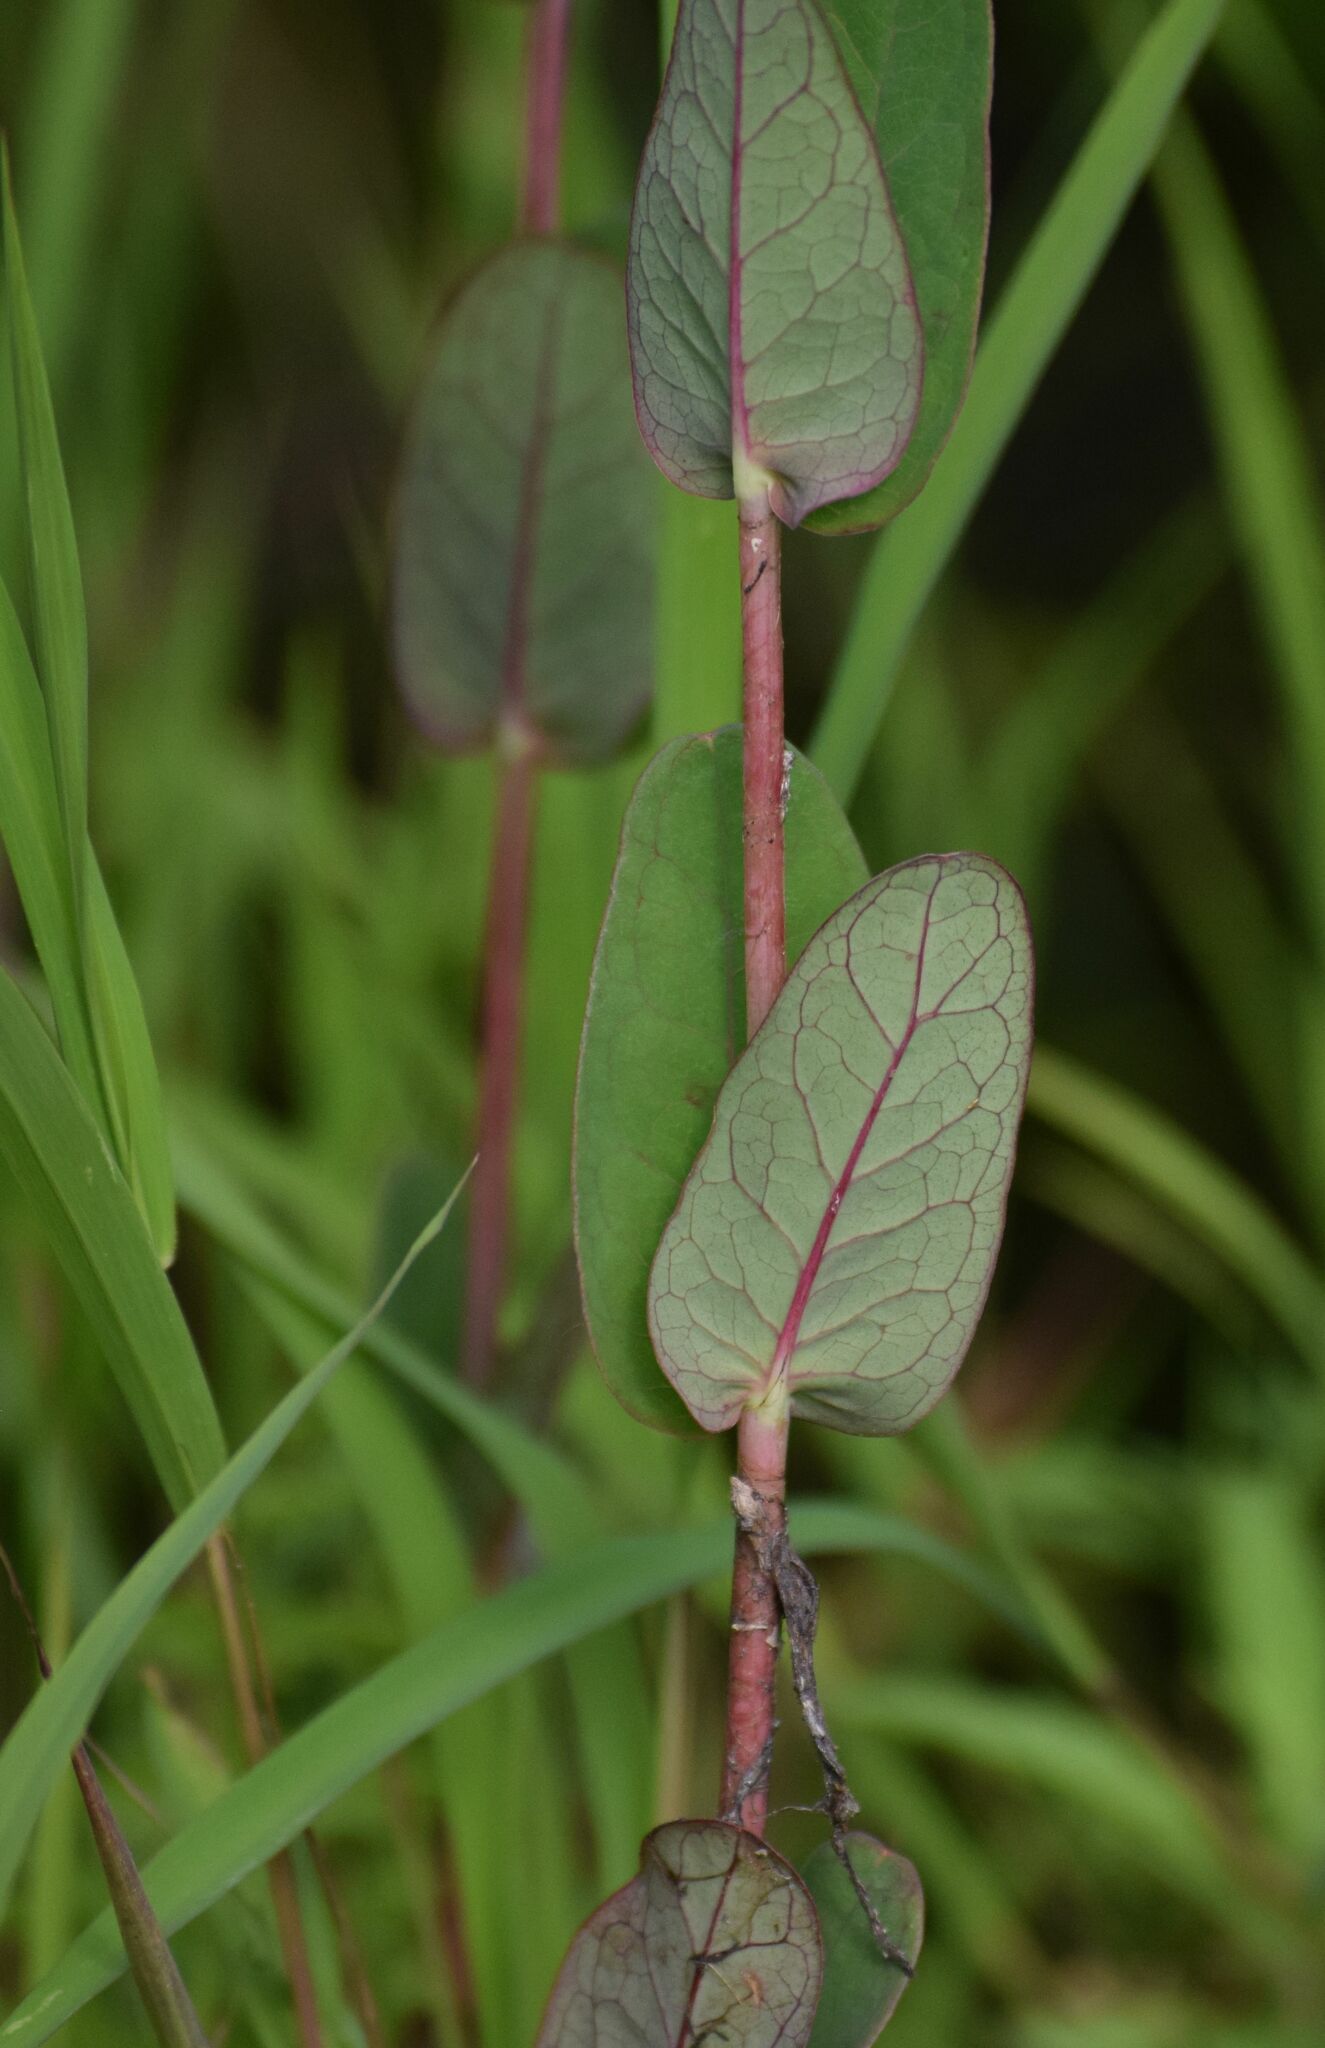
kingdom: Plantae
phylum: Tracheophyta
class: Magnoliopsida
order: Malpighiales
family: Hypericaceae
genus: Triadenum
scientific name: Triadenum fraseri
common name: Fraser's marsh st. johnswort
